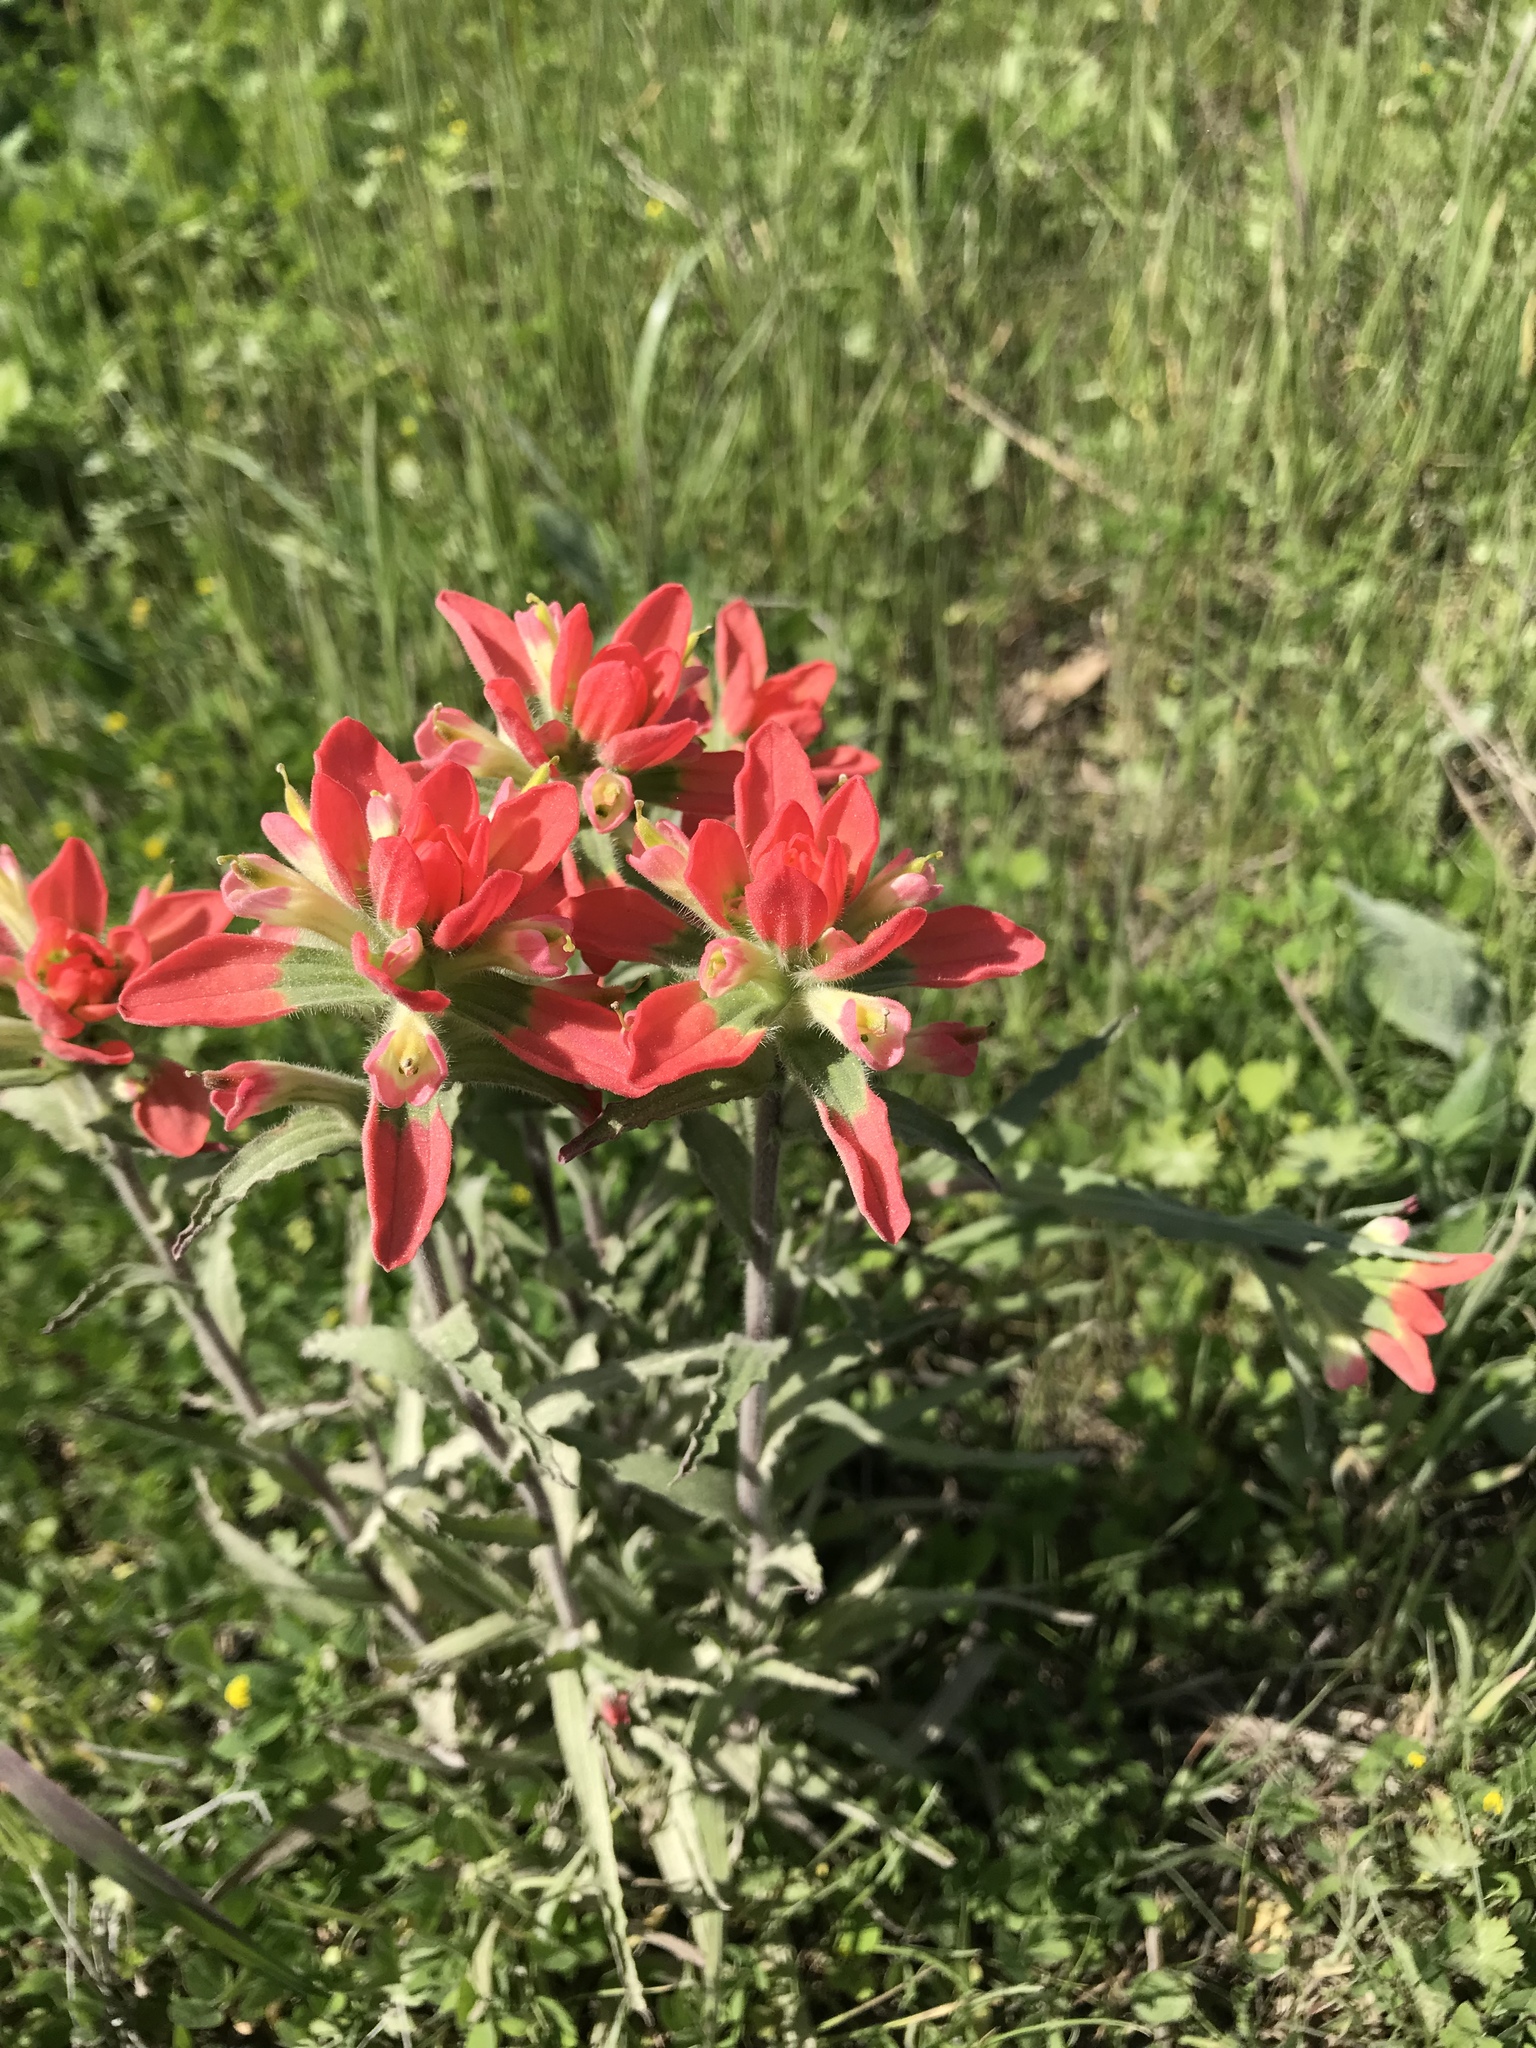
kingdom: Plantae
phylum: Tracheophyta
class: Magnoliopsida
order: Lamiales
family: Orobanchaceae
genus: Castilleja
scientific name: Castilleja indivisa
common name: Texas paintbrush
